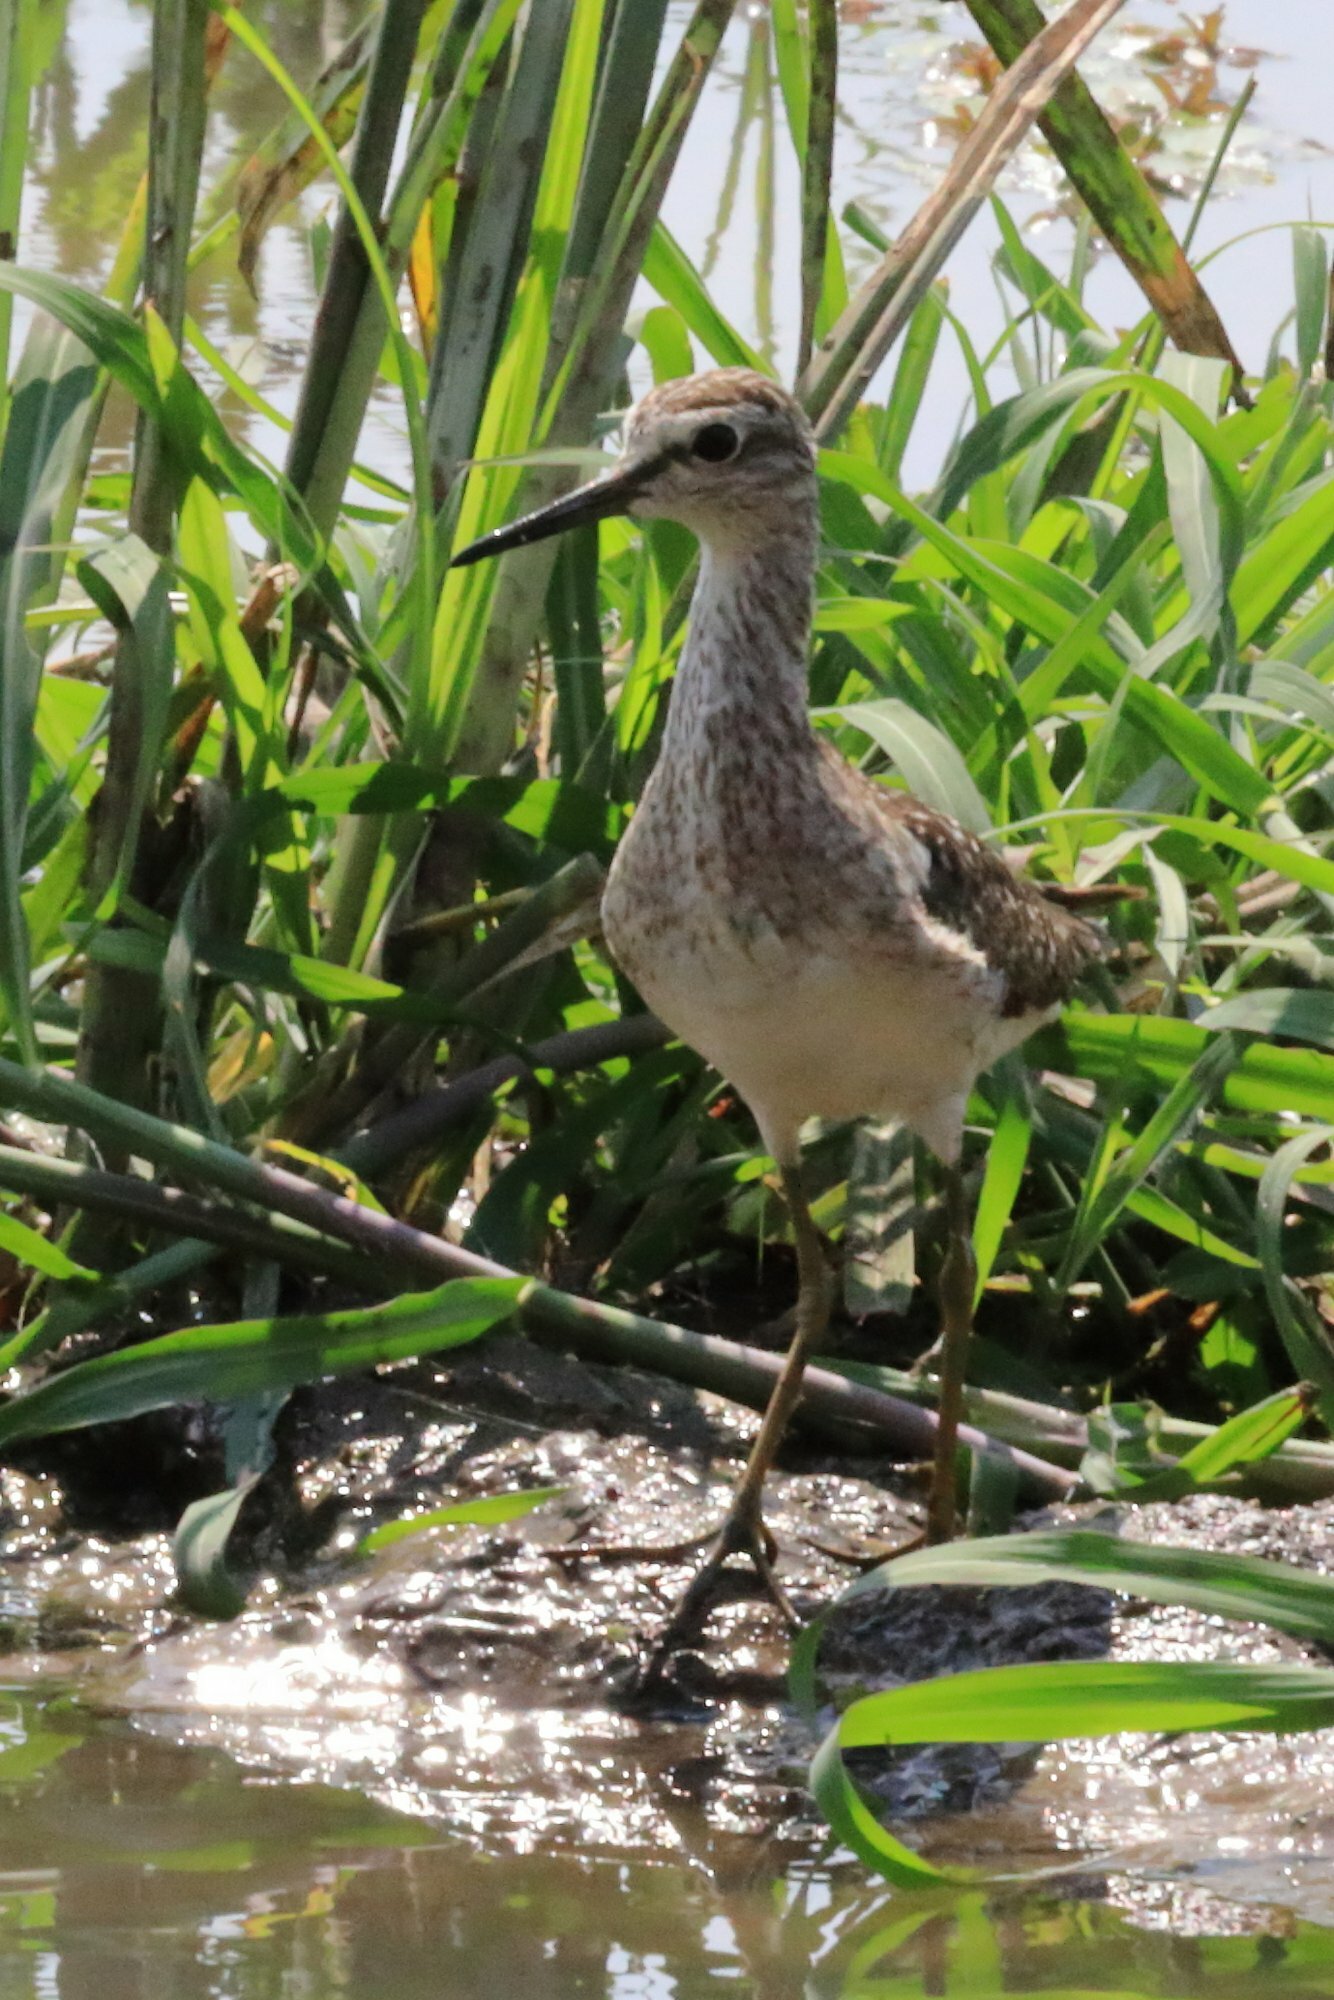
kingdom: Animalia
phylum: Chordata
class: Aves
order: Charadriiformes
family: Scolopacidae
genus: Tringa
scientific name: Tringa glareola
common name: Wood sandpiper
